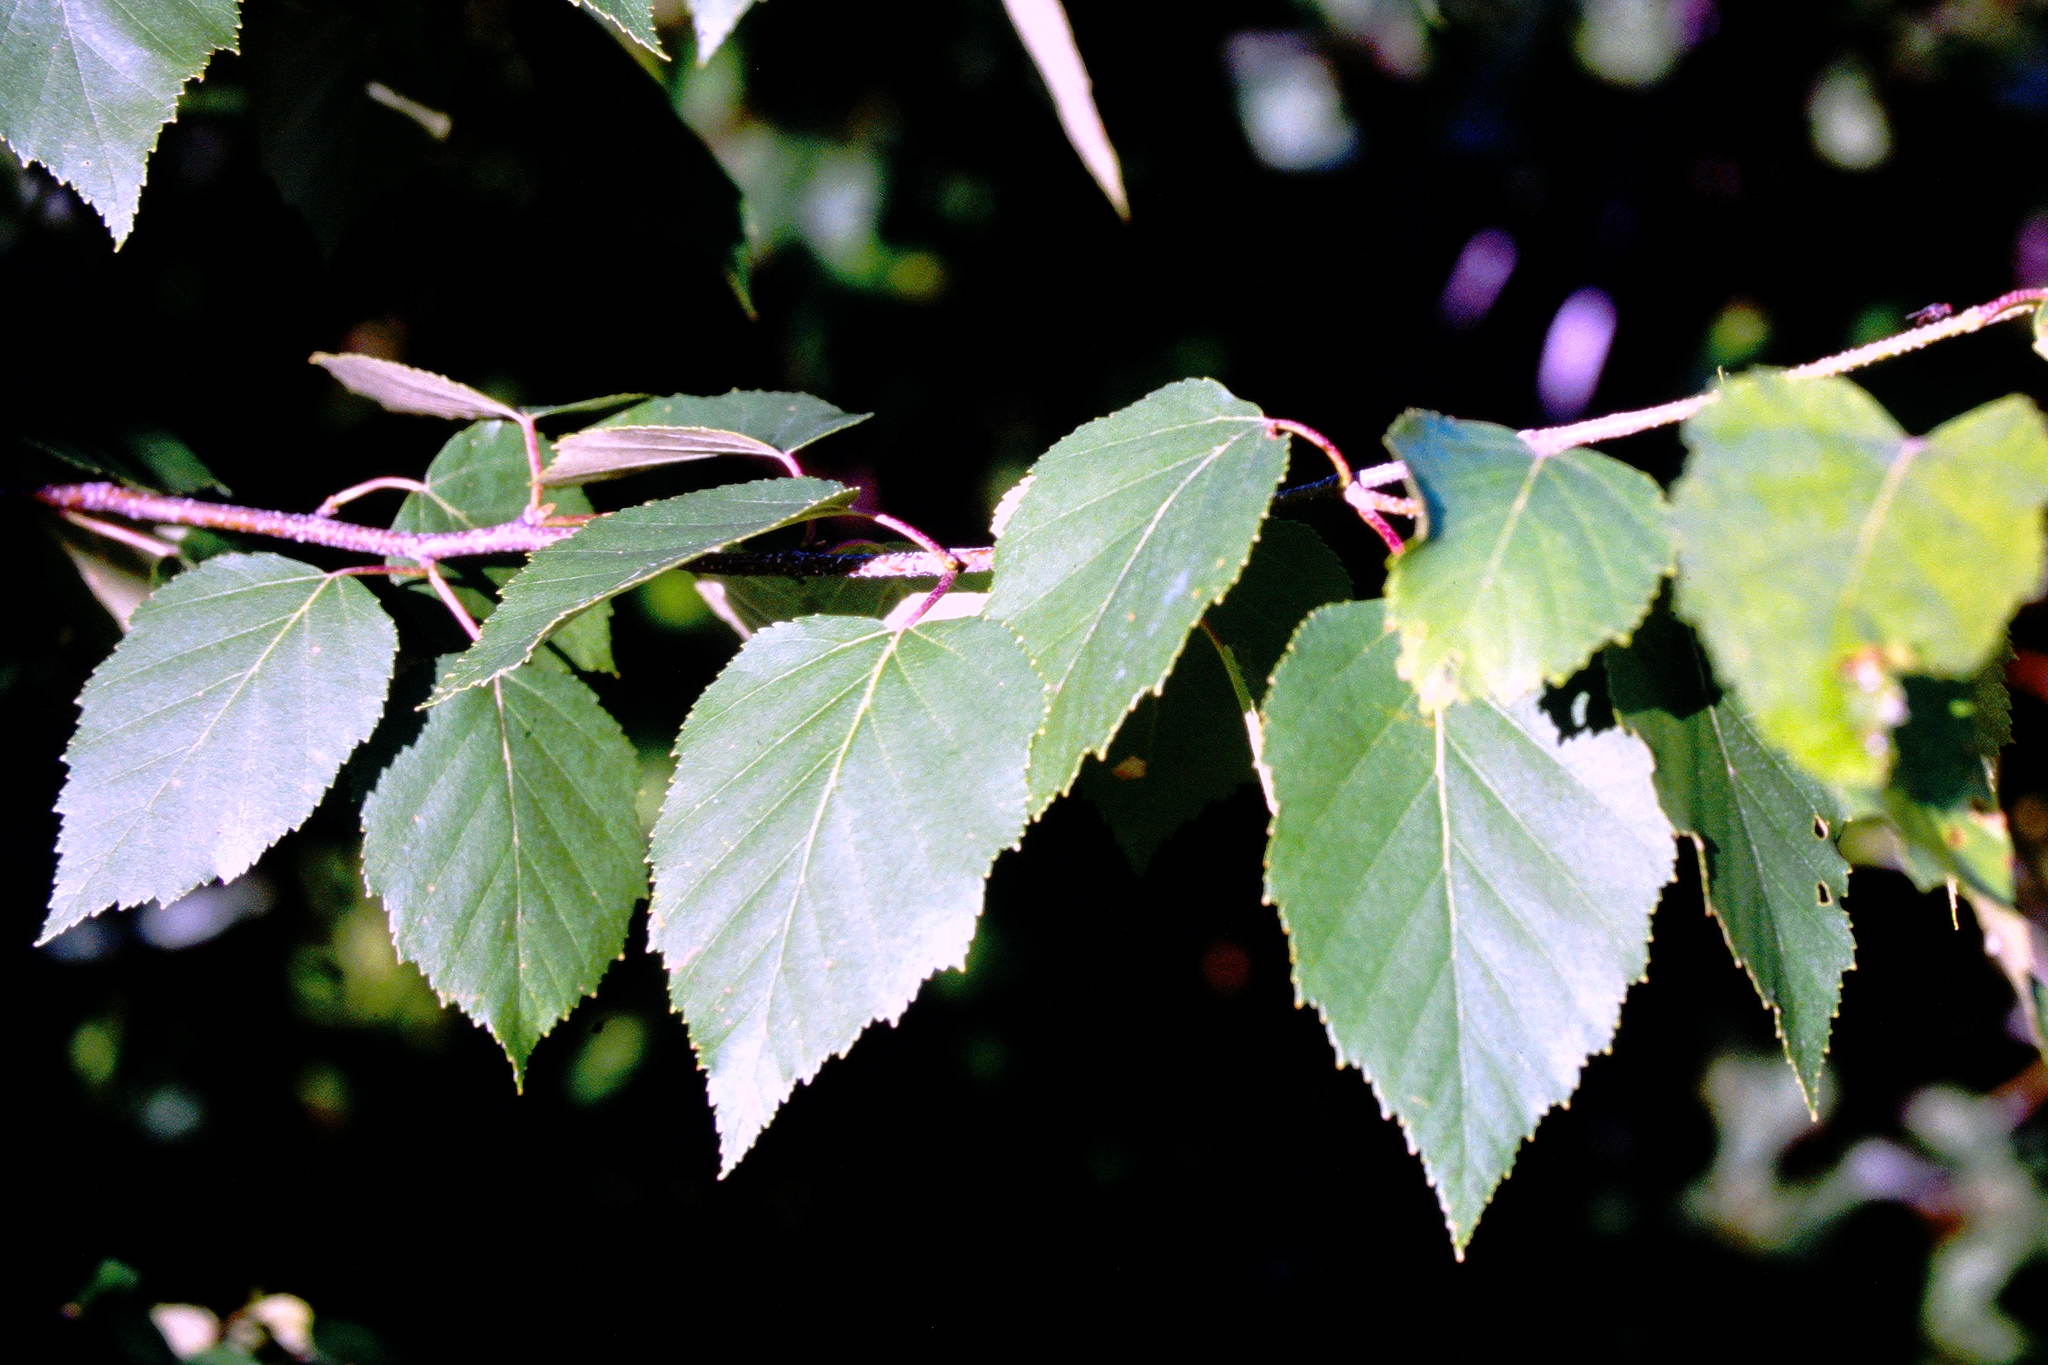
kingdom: Plantae
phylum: Tracheophyta
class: Magnoliopsida
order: Fagales
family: Betulaceae
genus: Betula
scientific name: Betula papyrifera
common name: Paper birch
